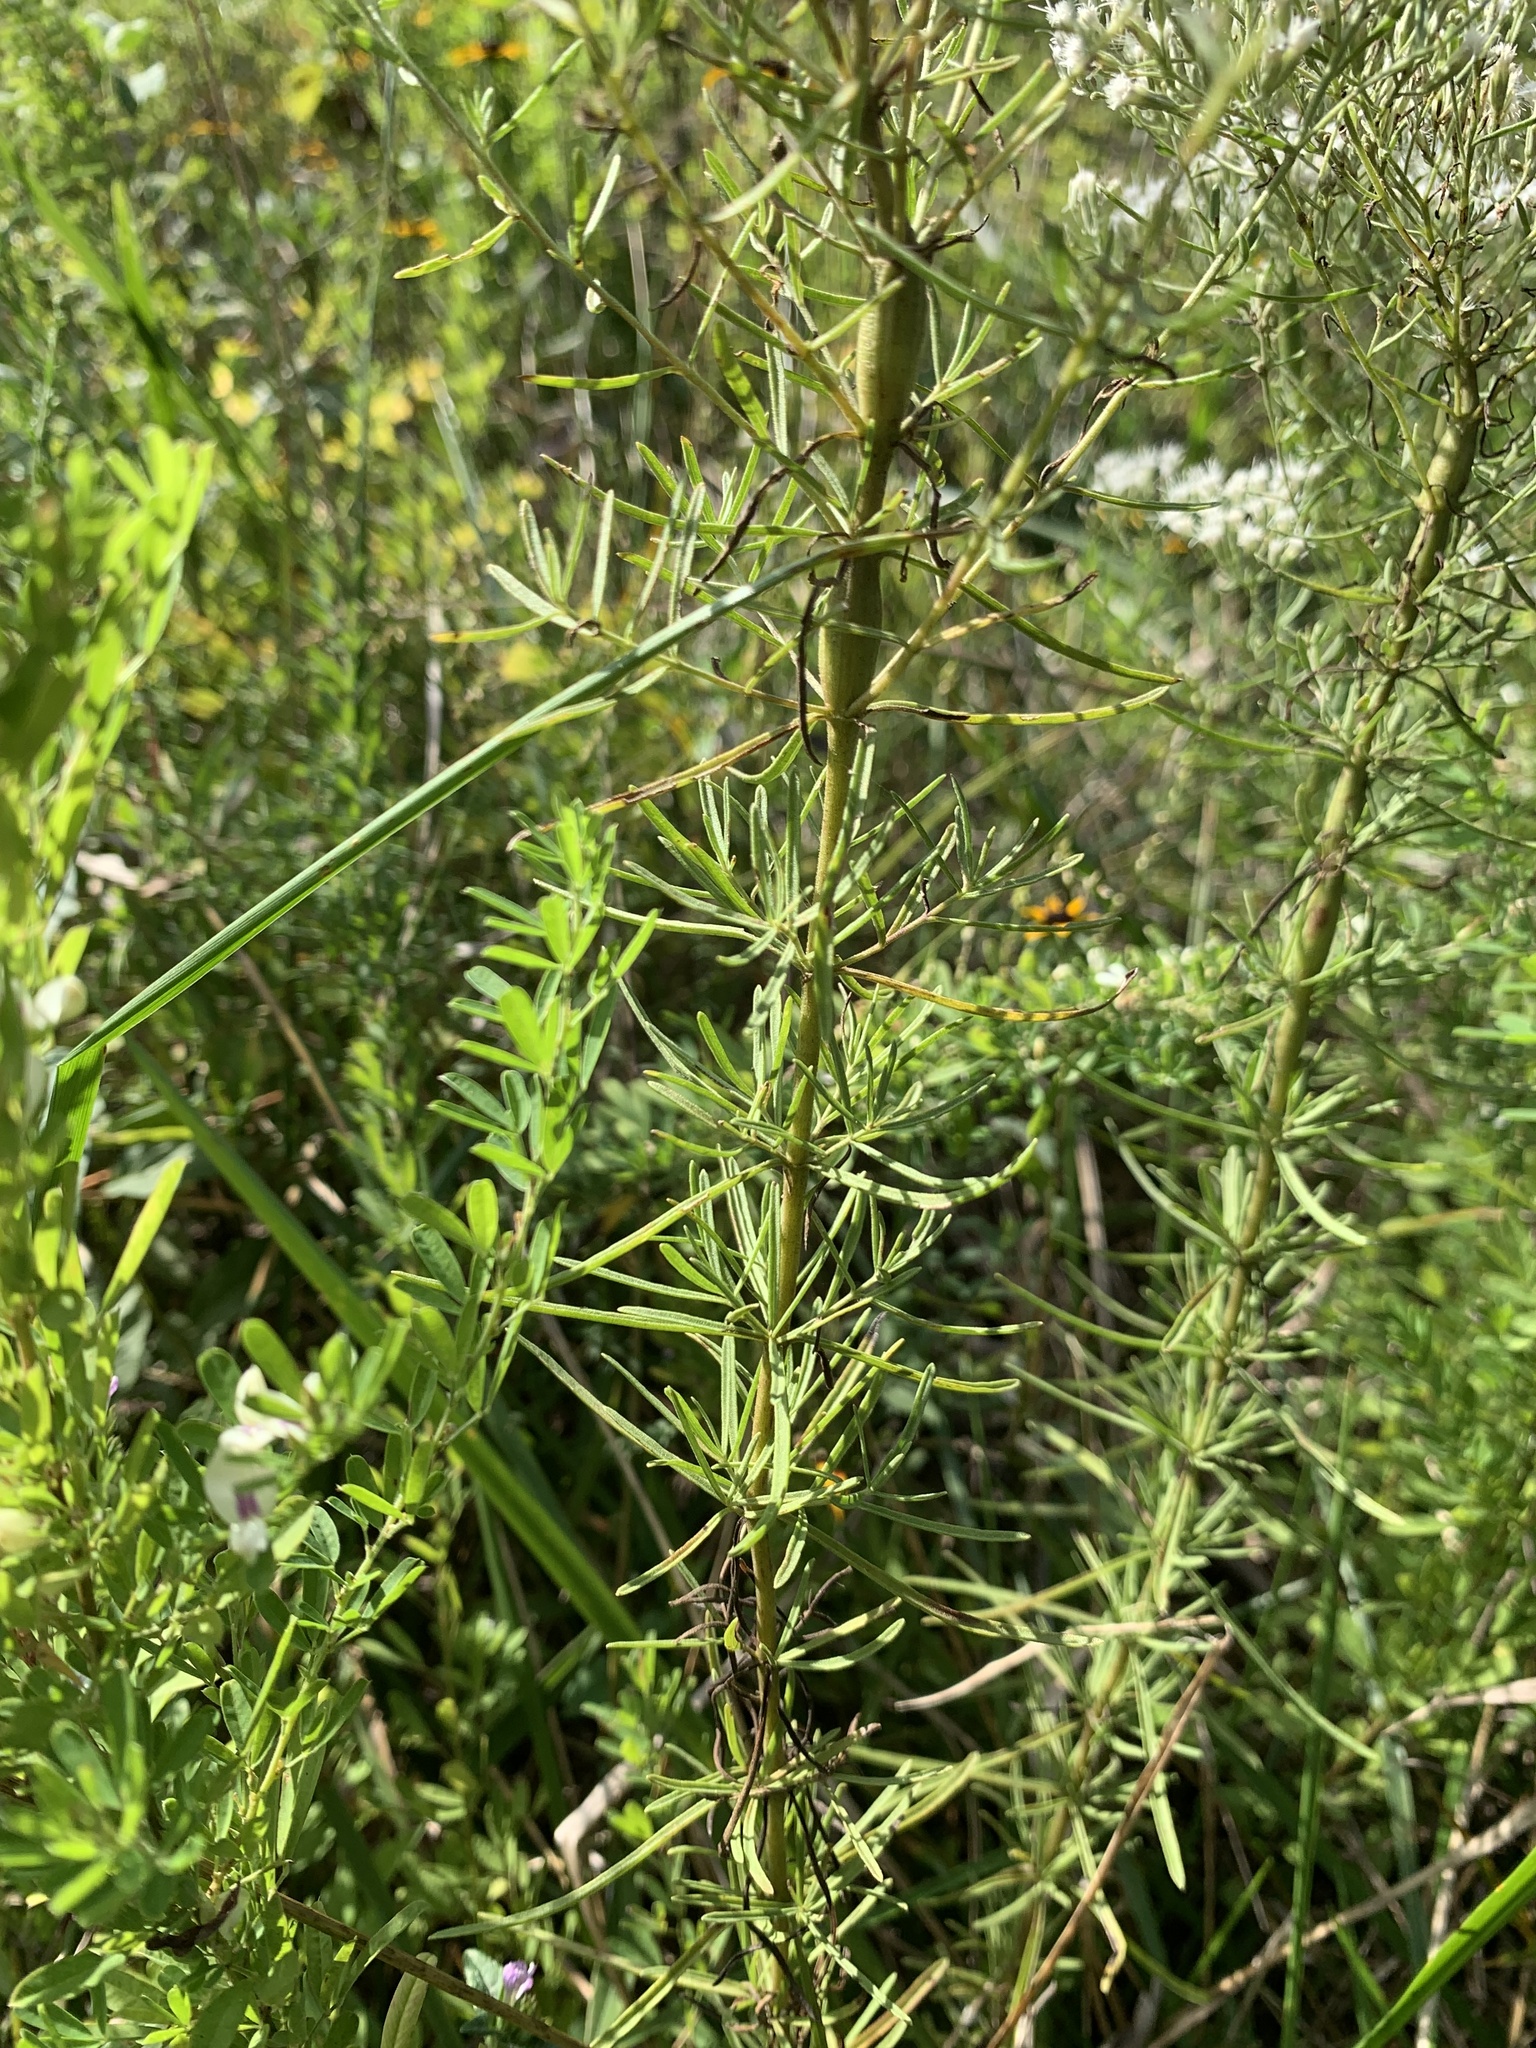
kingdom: Plantae
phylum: Tracheophyta
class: Magnoliopsida
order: Asterales
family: Asteraceae
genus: Eupatorium
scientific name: Eupatorium hyssopifolium
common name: Hyssop-leaf thoroughwort
